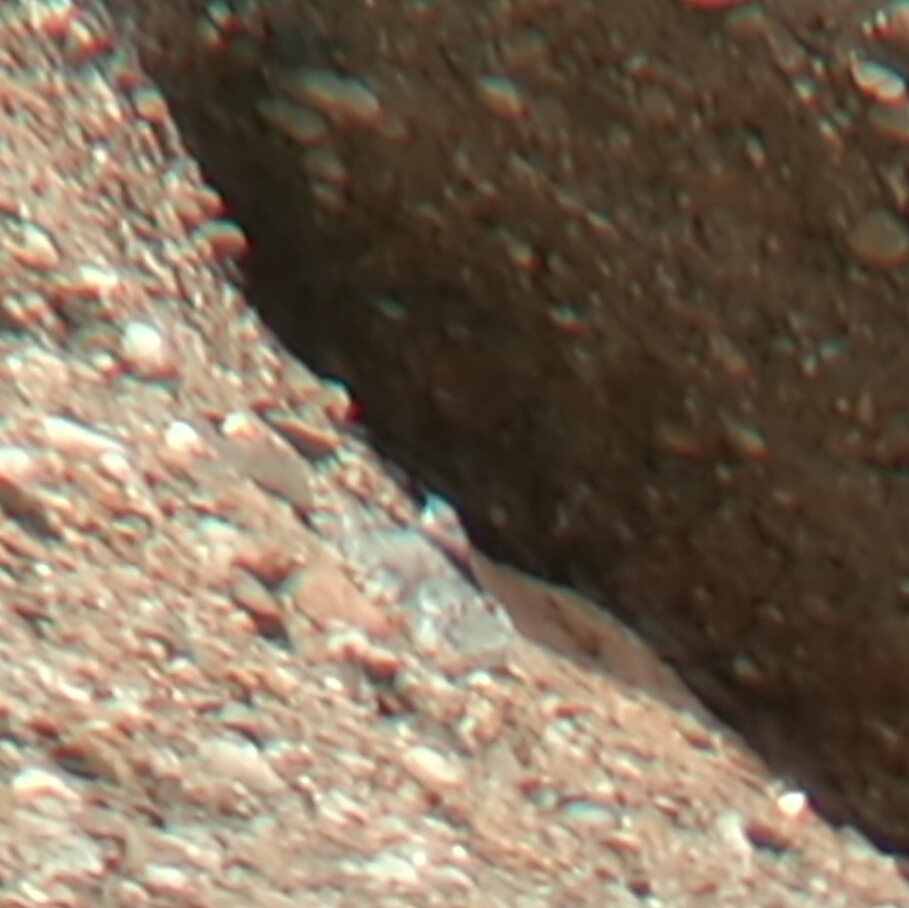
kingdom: Animalia
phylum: Chordata
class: Aves
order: Passeriformes
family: Tichodromidae
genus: Tichodroma
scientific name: Tichodroma muraria
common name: Wallcreeper
